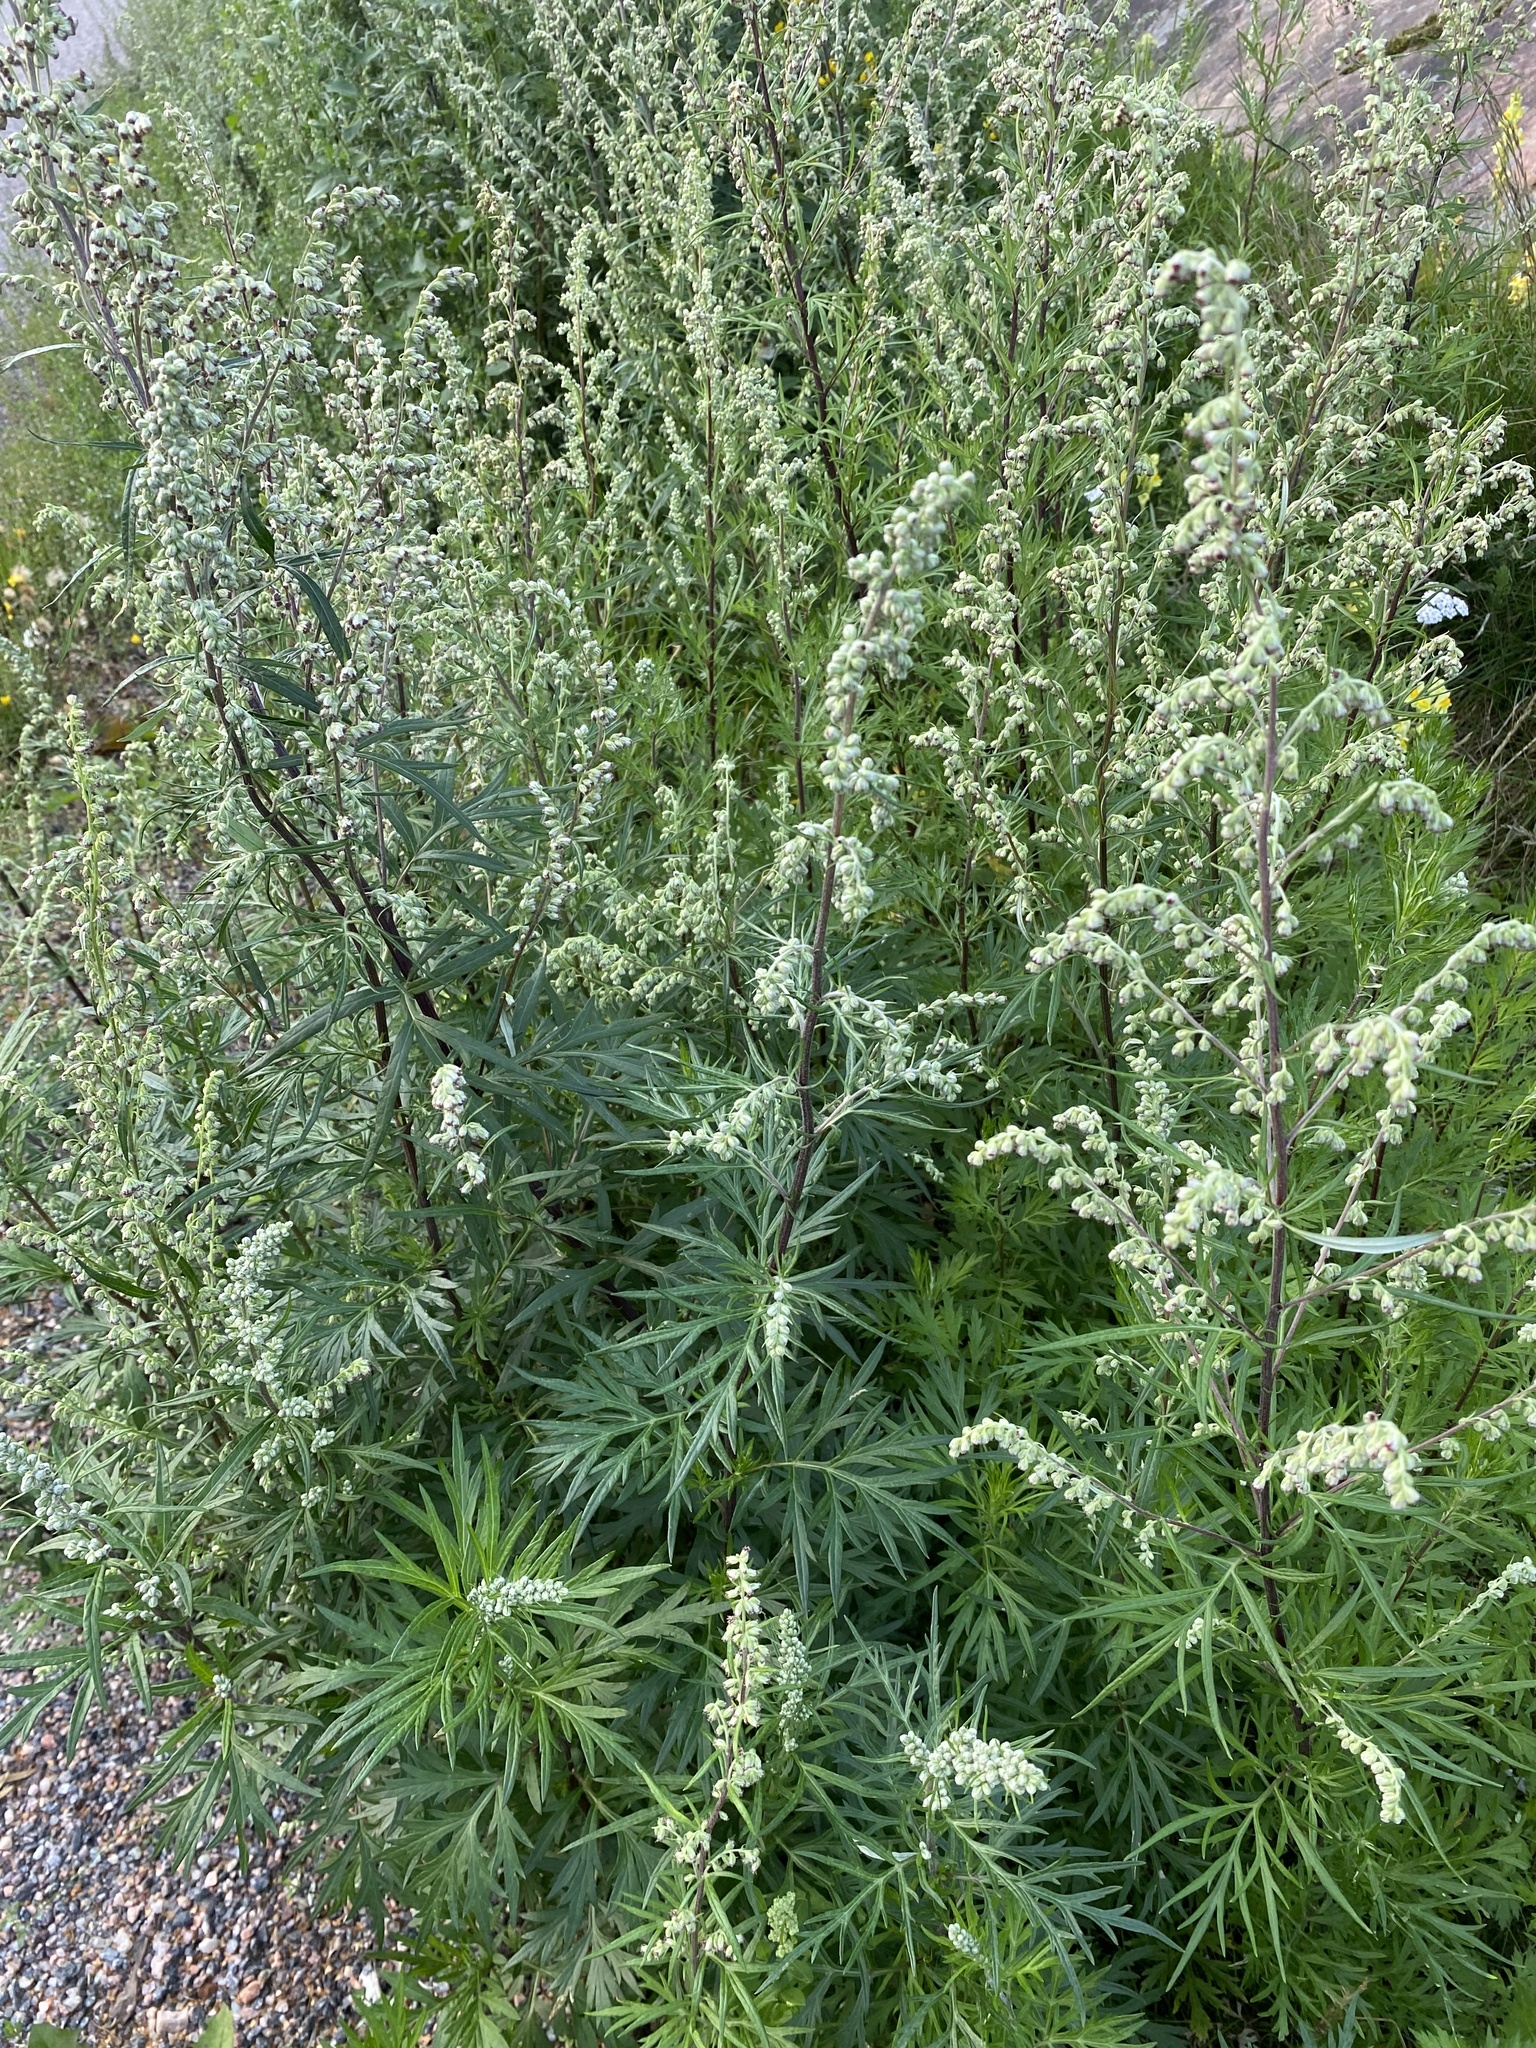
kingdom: Plantae
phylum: Tracheophyta
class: Magnoliopsida
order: Asterales
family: Asteraceae
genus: Artemisia
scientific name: Artemisia vulgaris
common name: Mugwort
